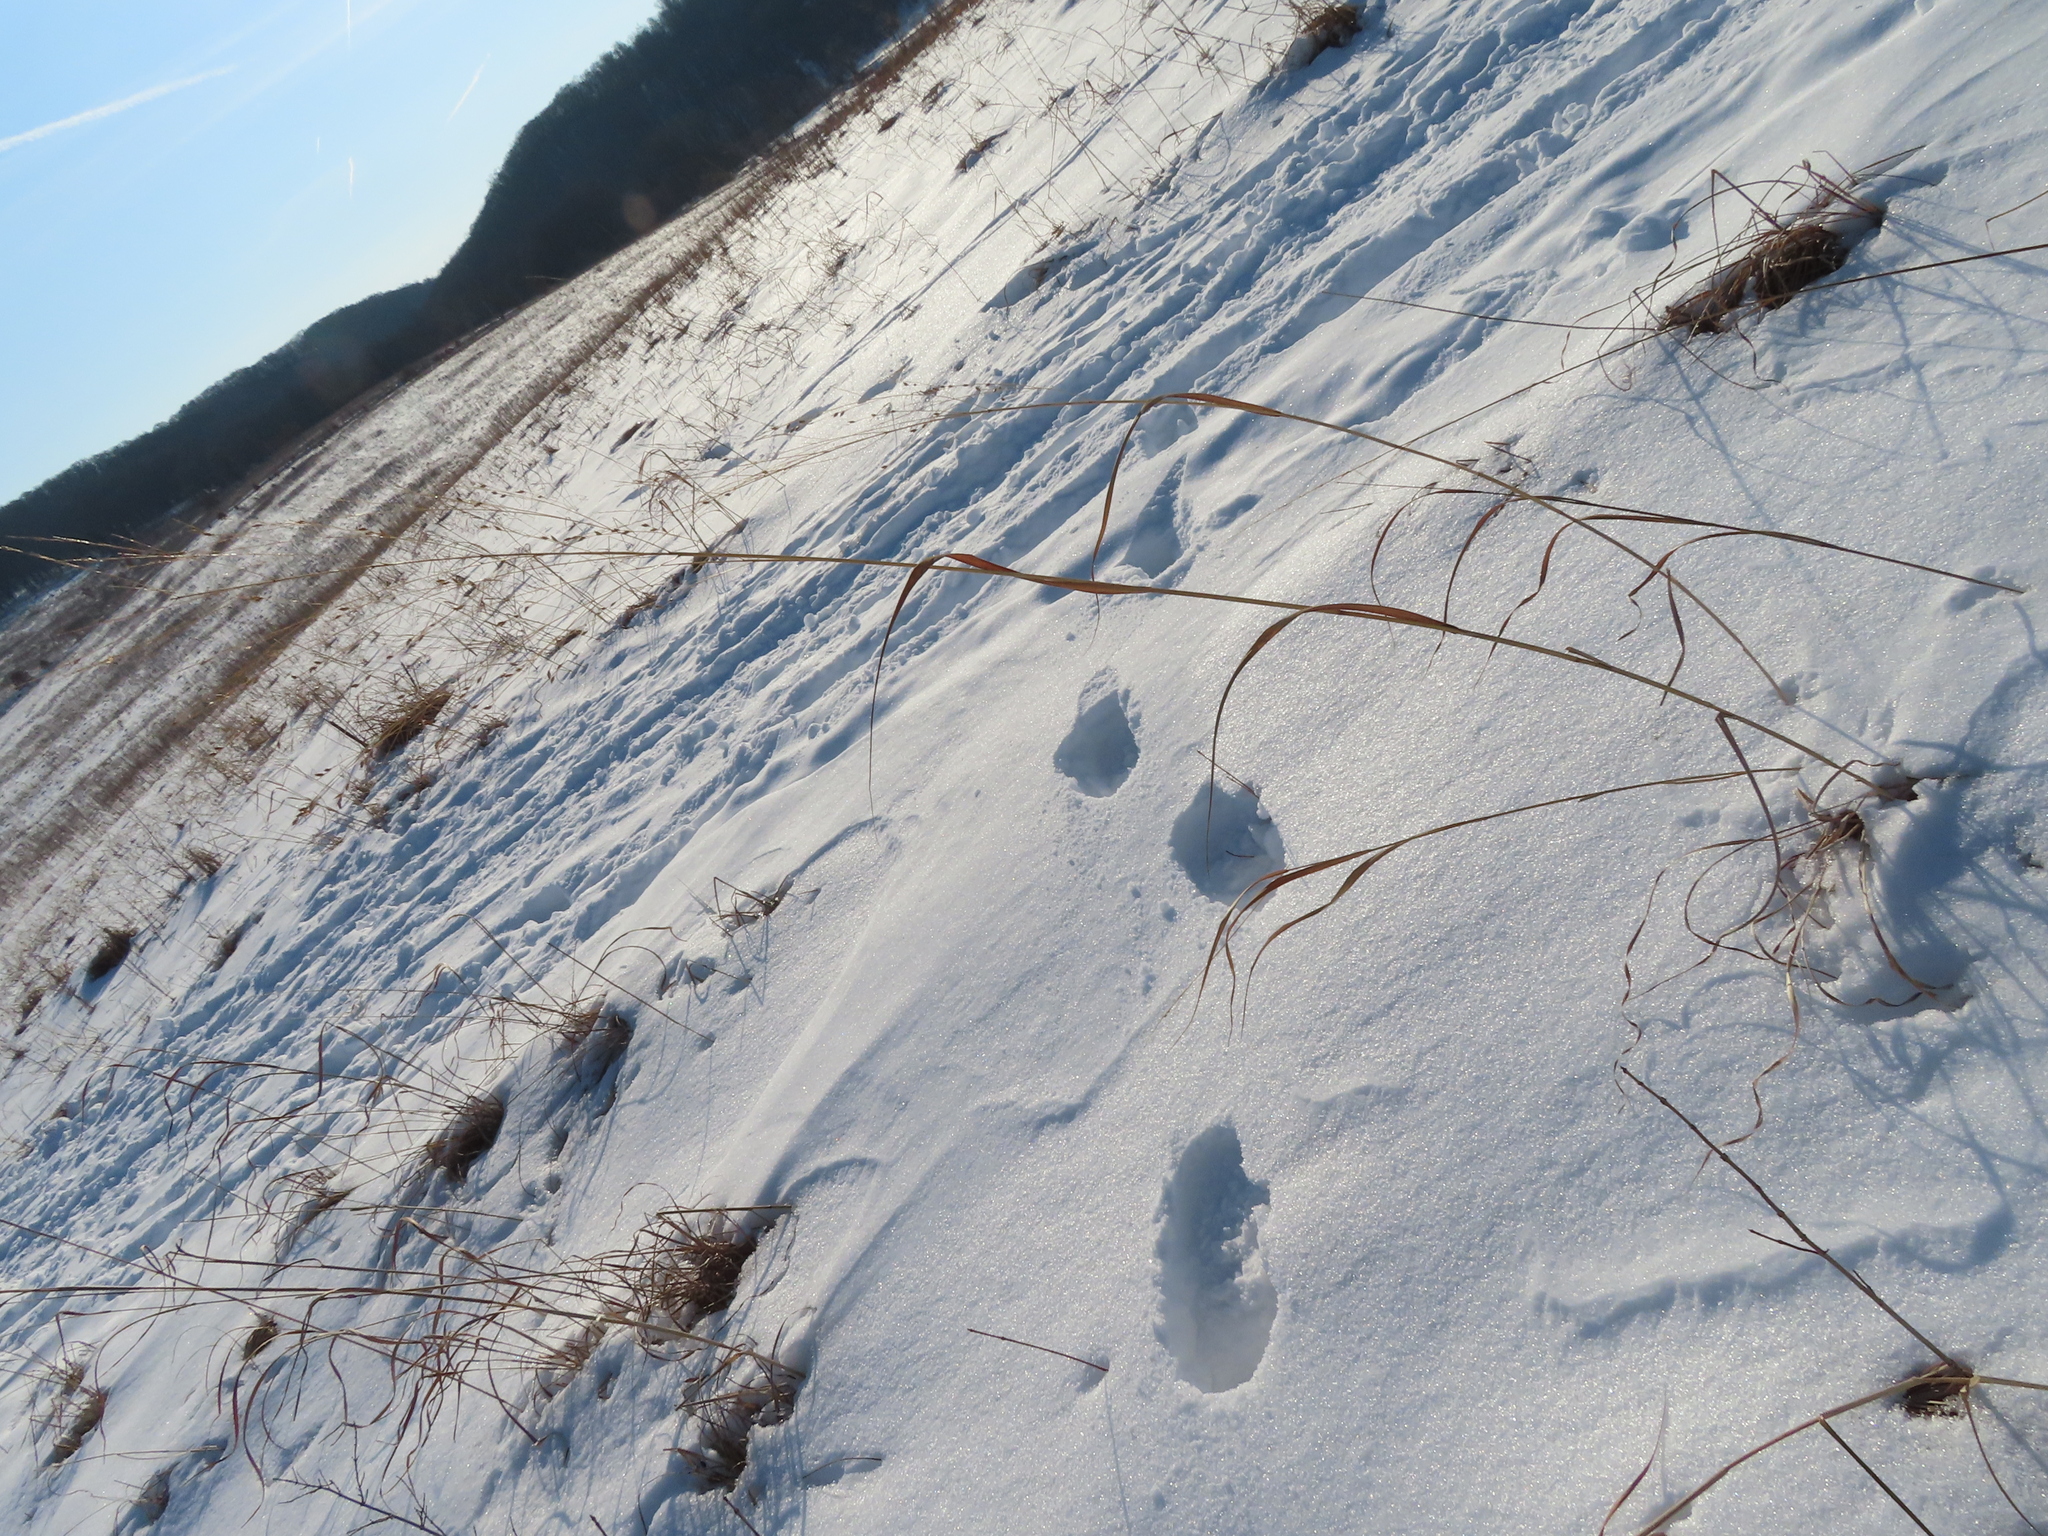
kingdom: Plantae
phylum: Tracheophyta
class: Liliopsida
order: Poales
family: Poaceae
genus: Panicum
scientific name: Panicum virgatum
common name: Switchgrass
